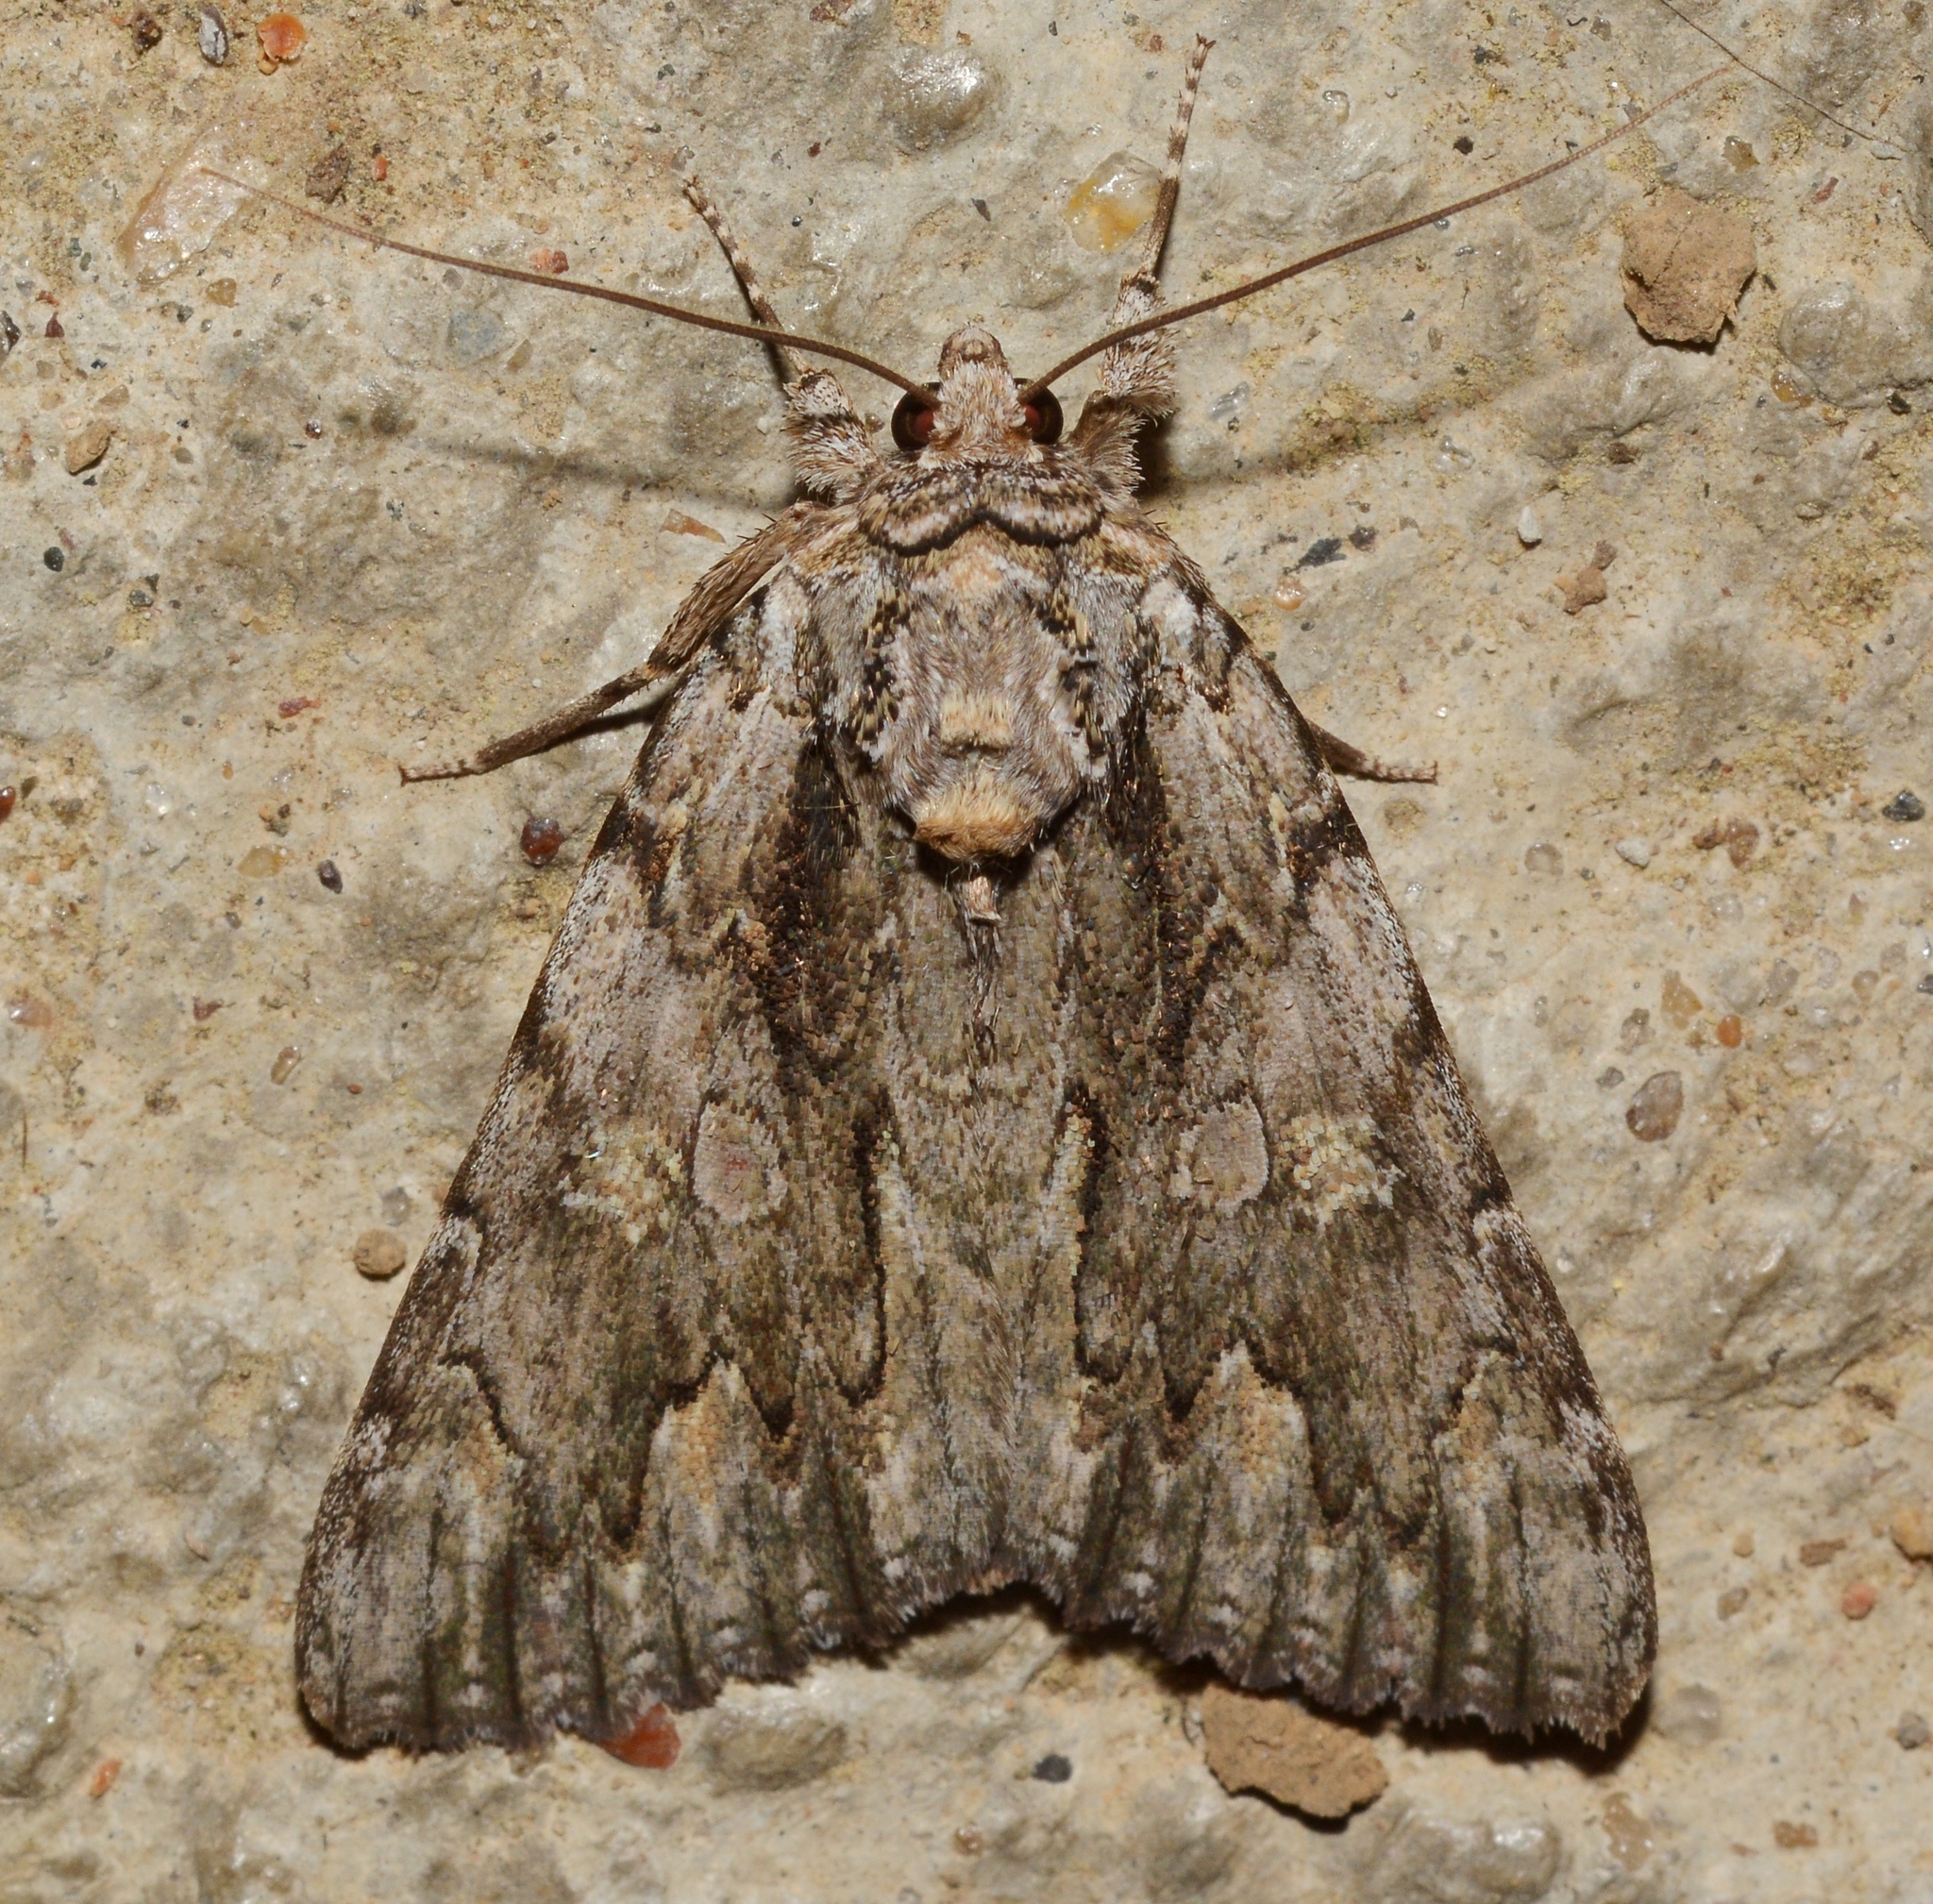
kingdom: Animalia
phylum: Arthropoda
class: Insecta
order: Lepidoptera
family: Erebidae
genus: Catocala
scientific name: Catocala coccinata
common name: Scarlet underwing
